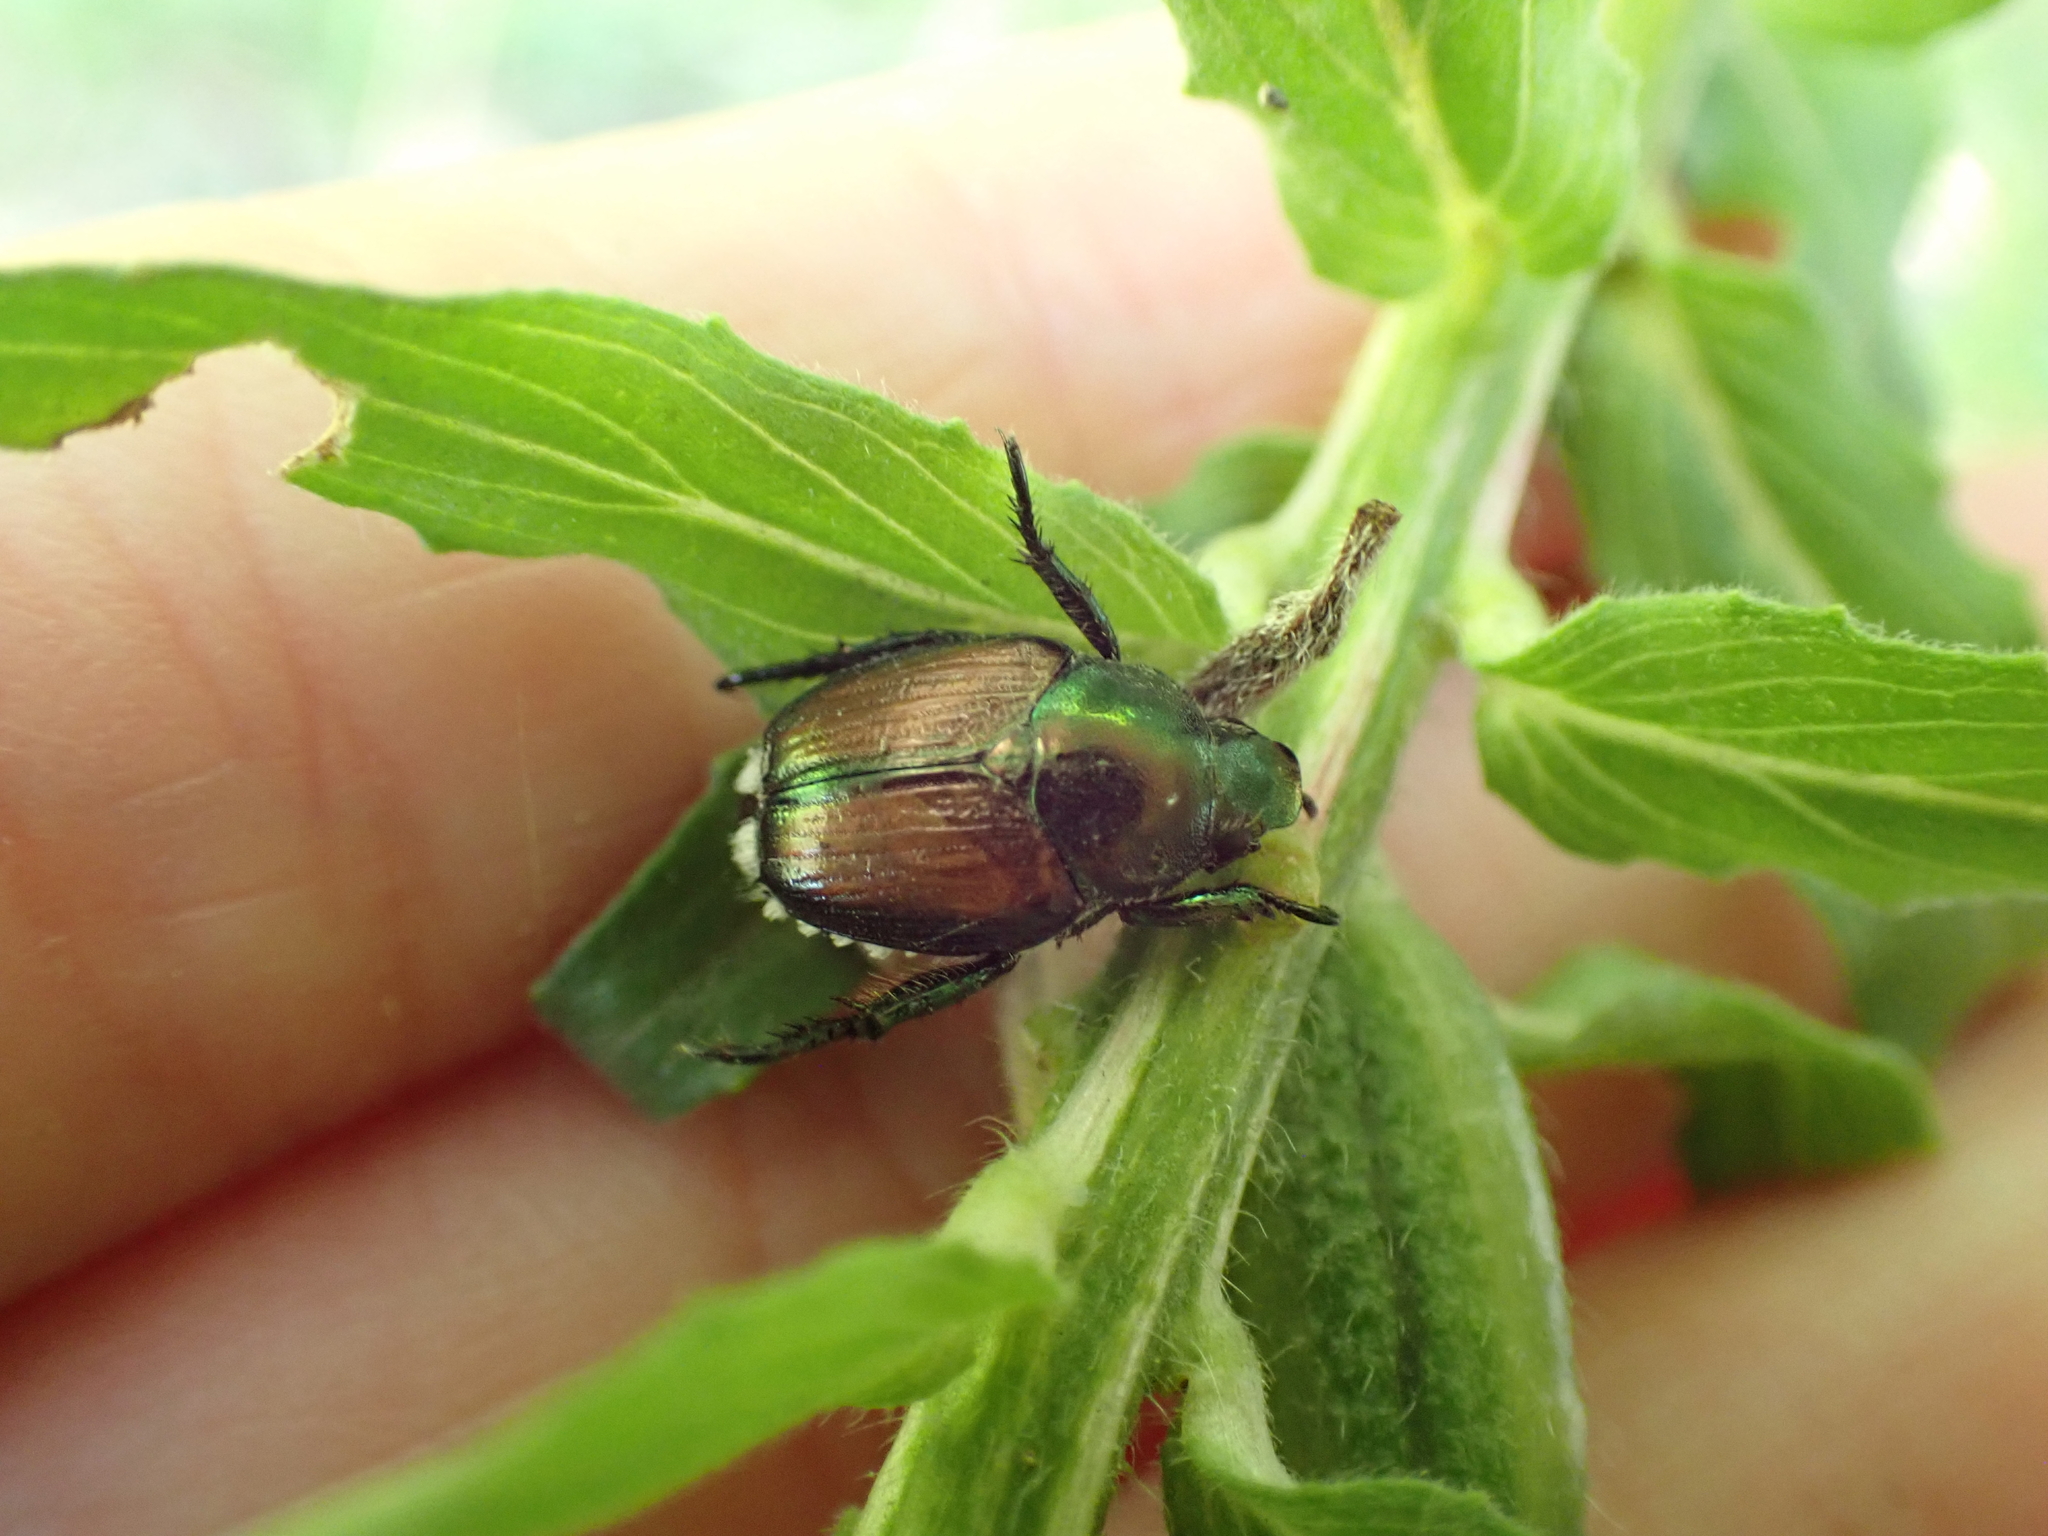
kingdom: Animalia
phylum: Arthropoda
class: Insecta
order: Coleoptera
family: Scarabaeidae
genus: Popillia
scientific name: Popillia japonica
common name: Japanese beetle
